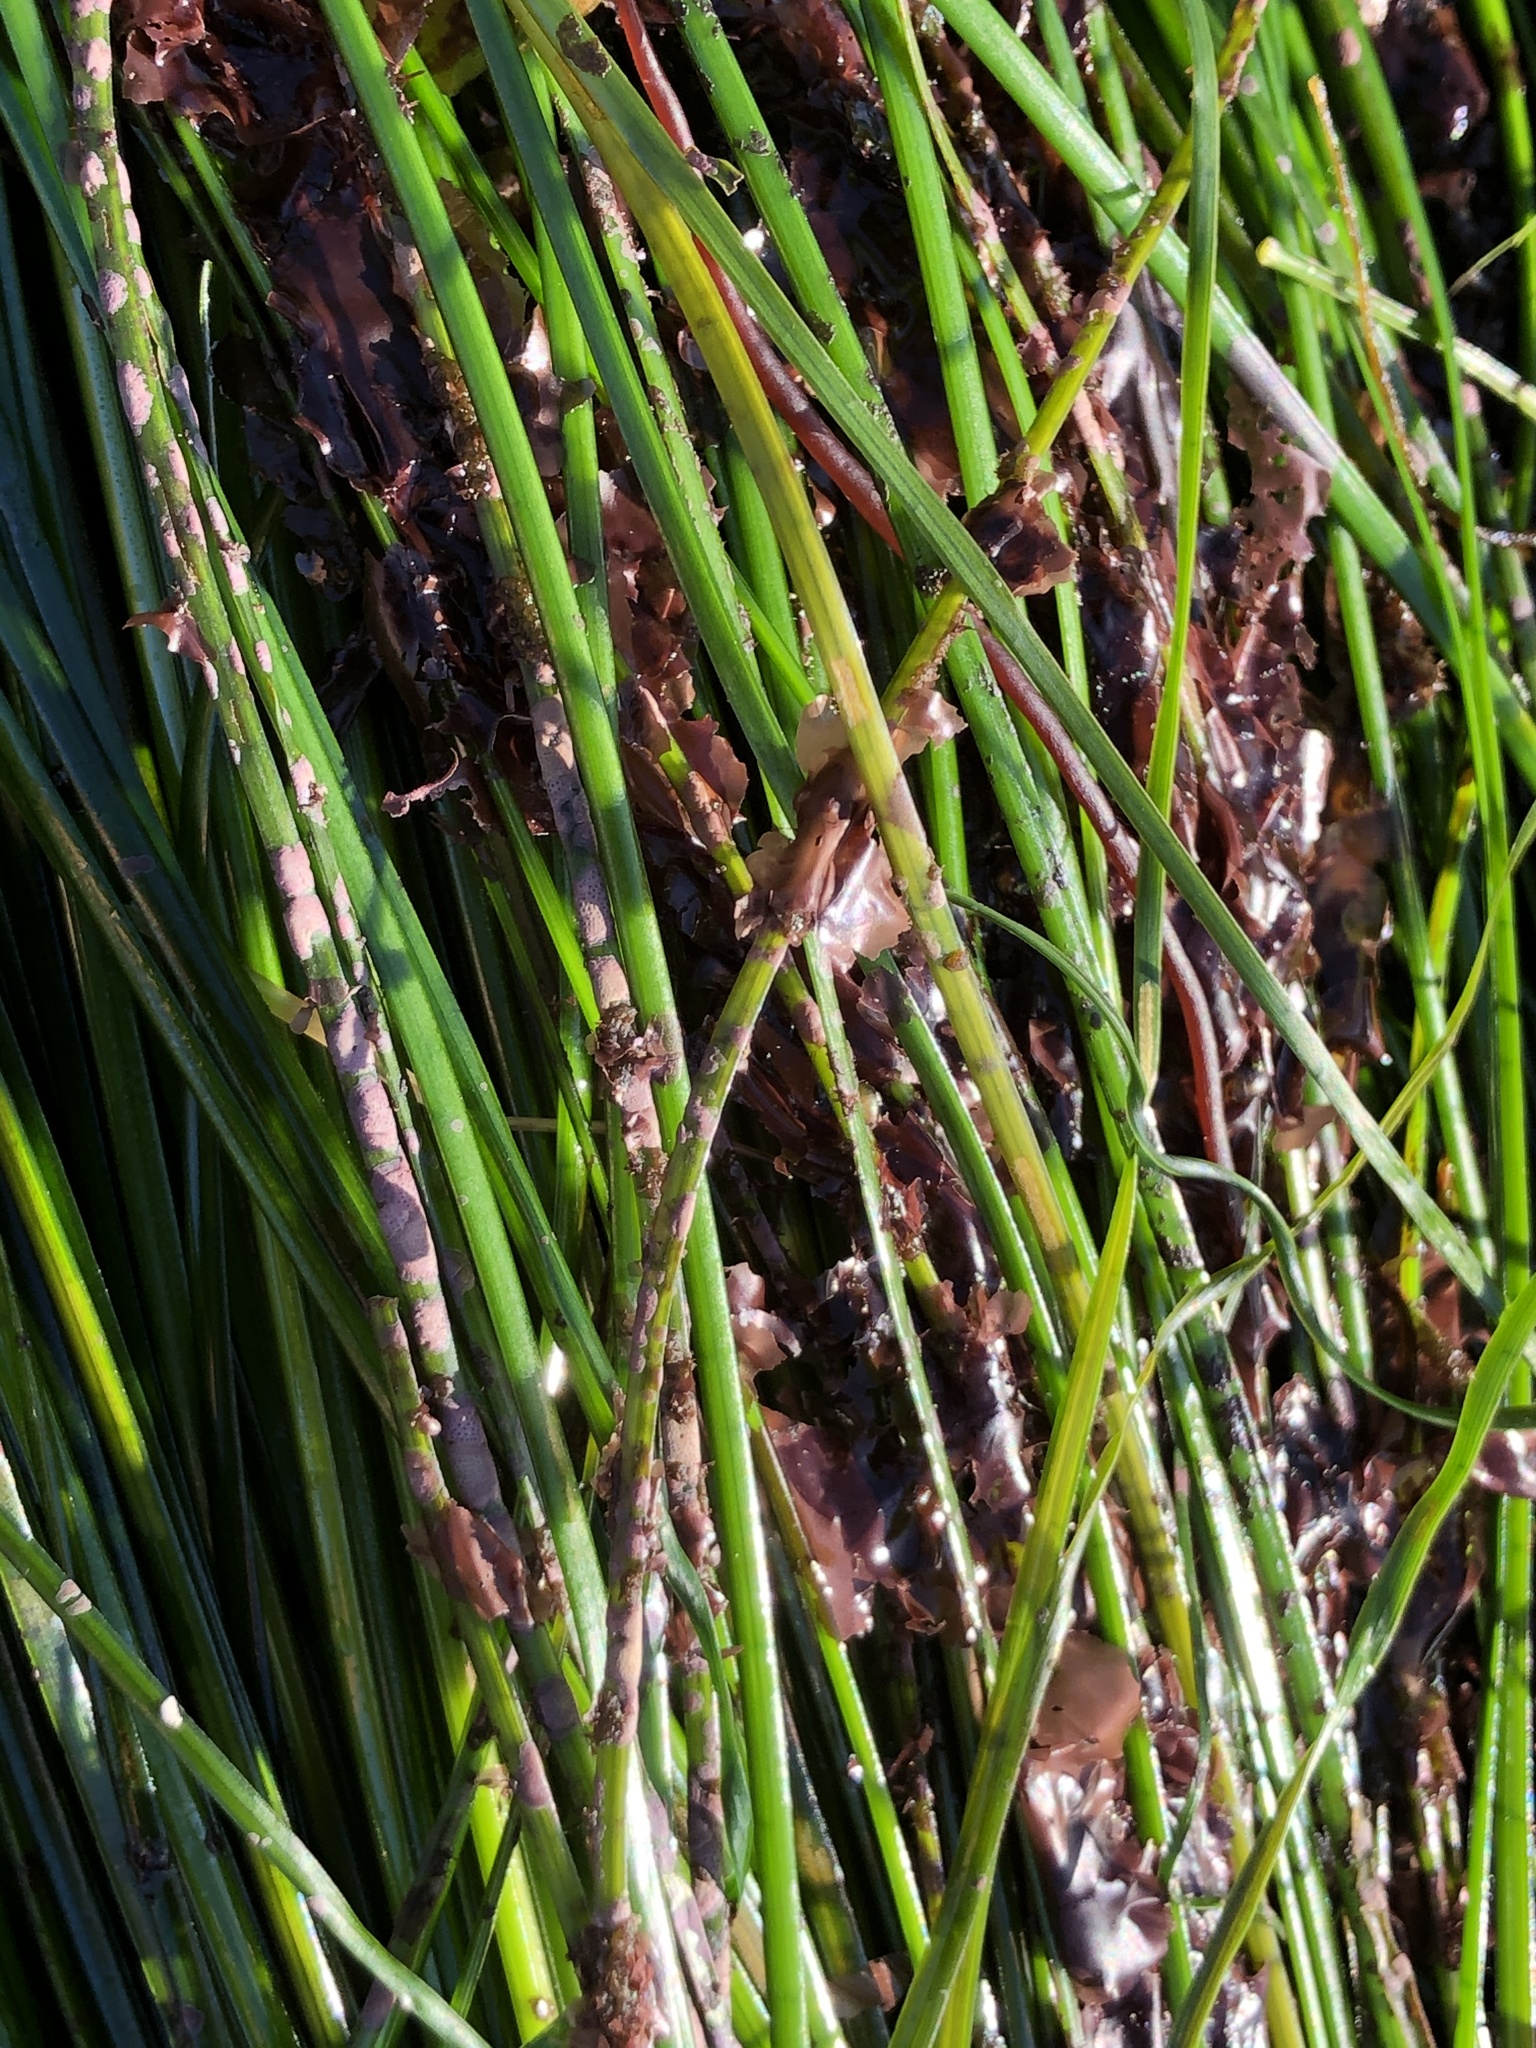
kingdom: Plantae
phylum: Rhodophyta
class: Compsopogonophyceae
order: Erythropeltidales
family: Erythrotrichiaceae
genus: Smithora
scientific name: Smithora naiadum
